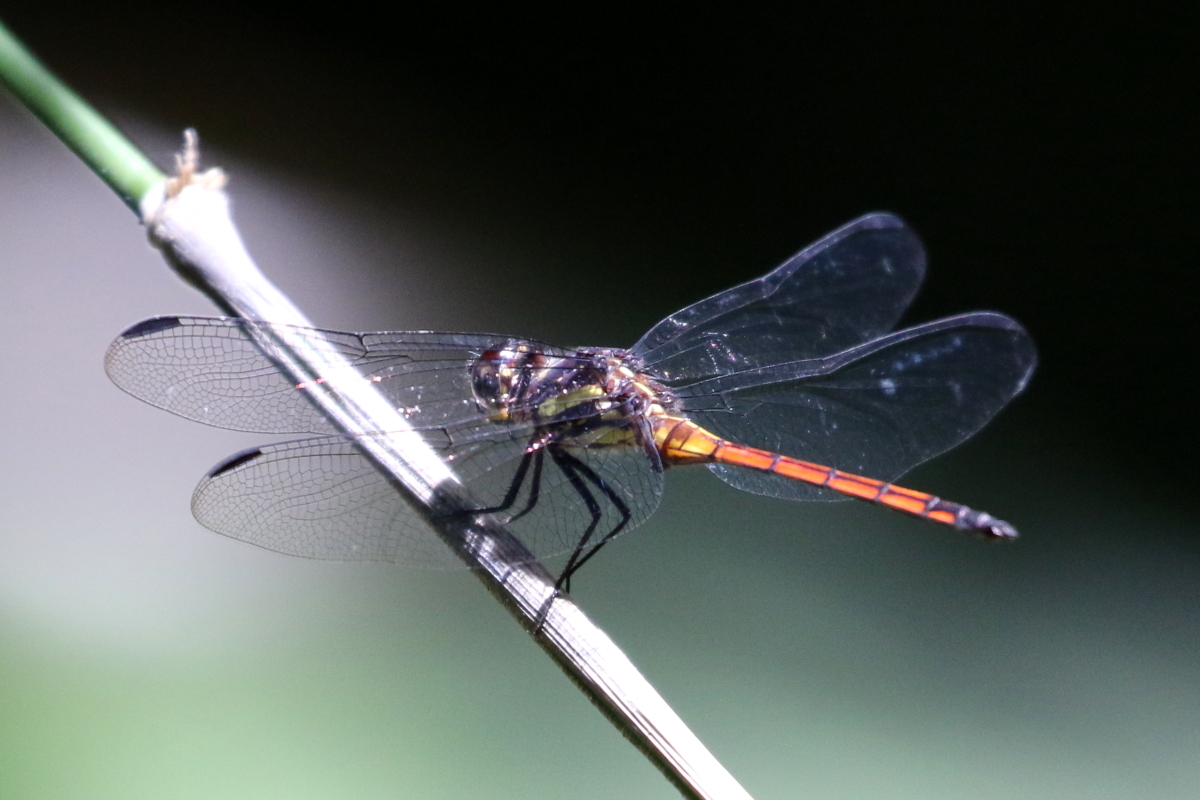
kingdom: Animalia
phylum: Arthropoda
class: Insecta
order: Odonata
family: Libellulidae
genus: Orthemis
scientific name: Orthemis cultriformis
